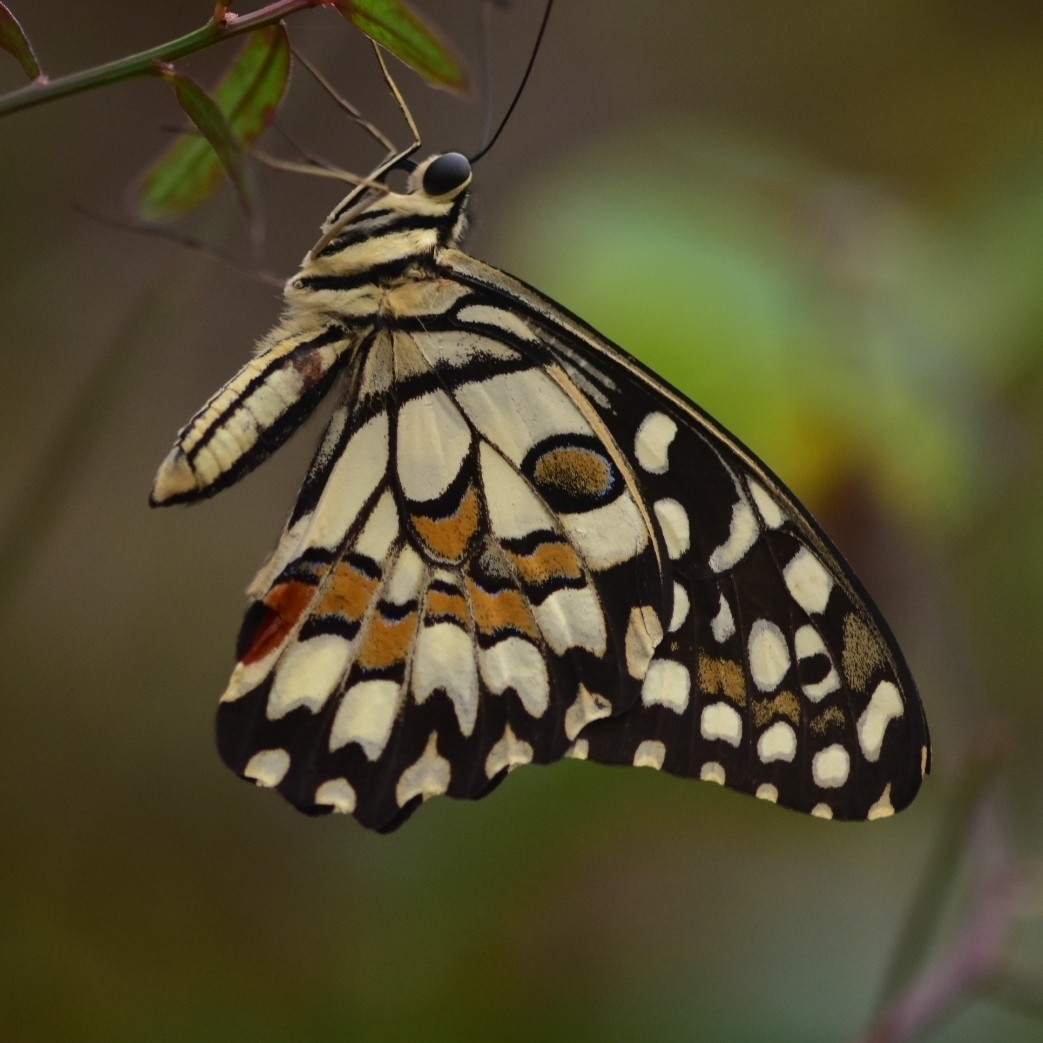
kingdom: Animalia
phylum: Arthropoda
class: Insecta
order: Lepidoptera
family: Papilionidae
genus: Papilio
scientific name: Papilio demoleus
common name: Lime butterfly
